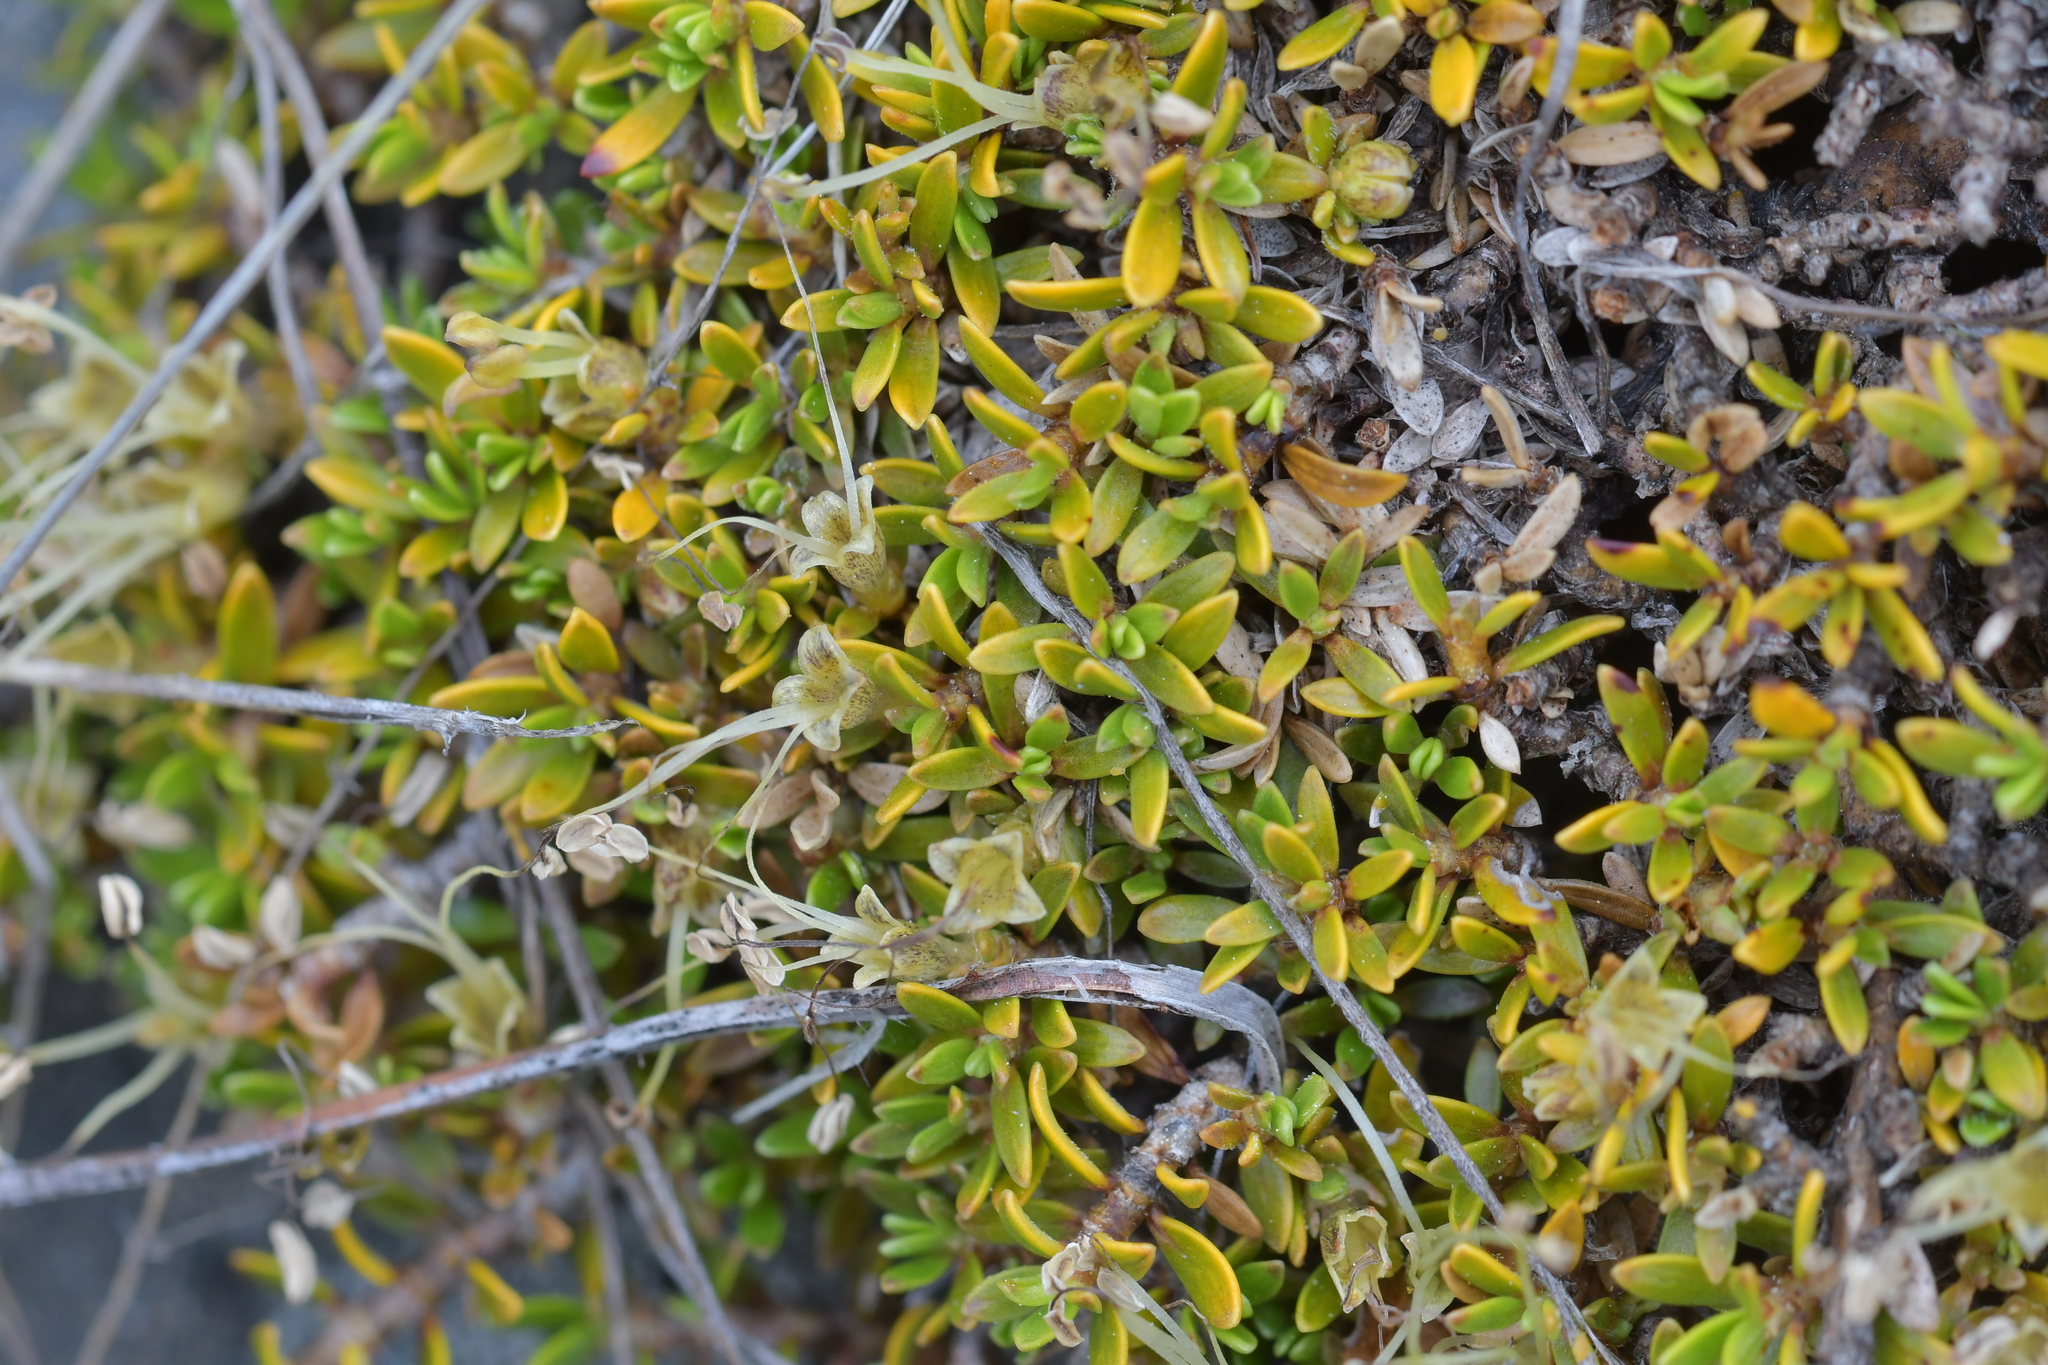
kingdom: Plantae
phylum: Tracheophyta
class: Magnoliopsida
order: Gentianales
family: Rubiaceae
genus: Coprosma
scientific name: Coprosma perpusilla
